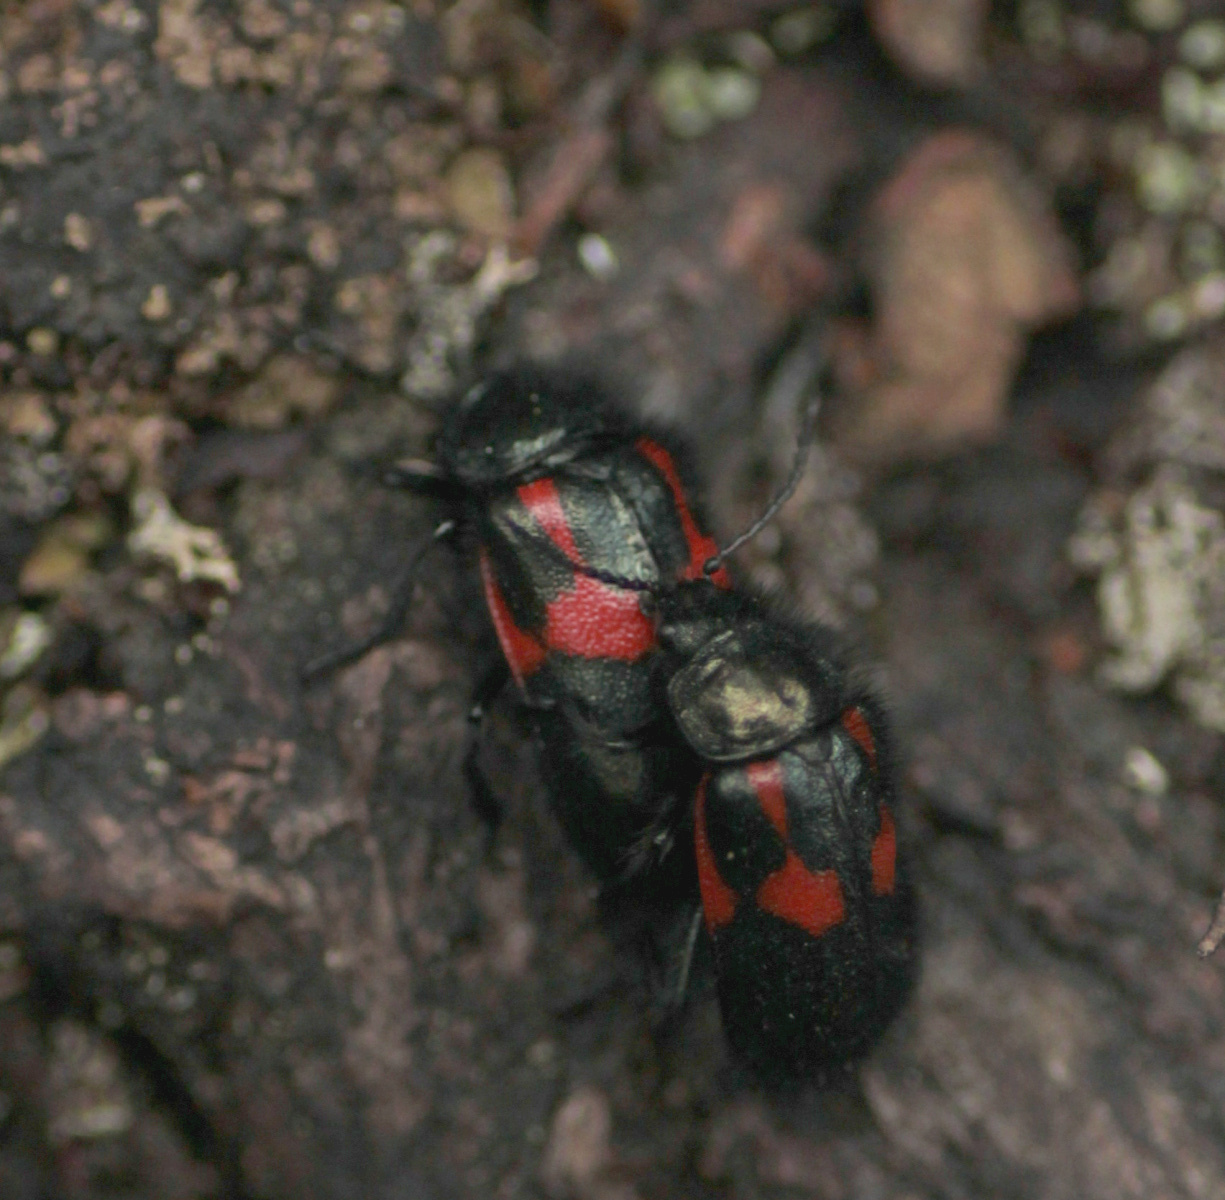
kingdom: Animalia
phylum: Arthropoda
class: Insecta
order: Coleoptera
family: Melyridae
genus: Astylus
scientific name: Astylus
